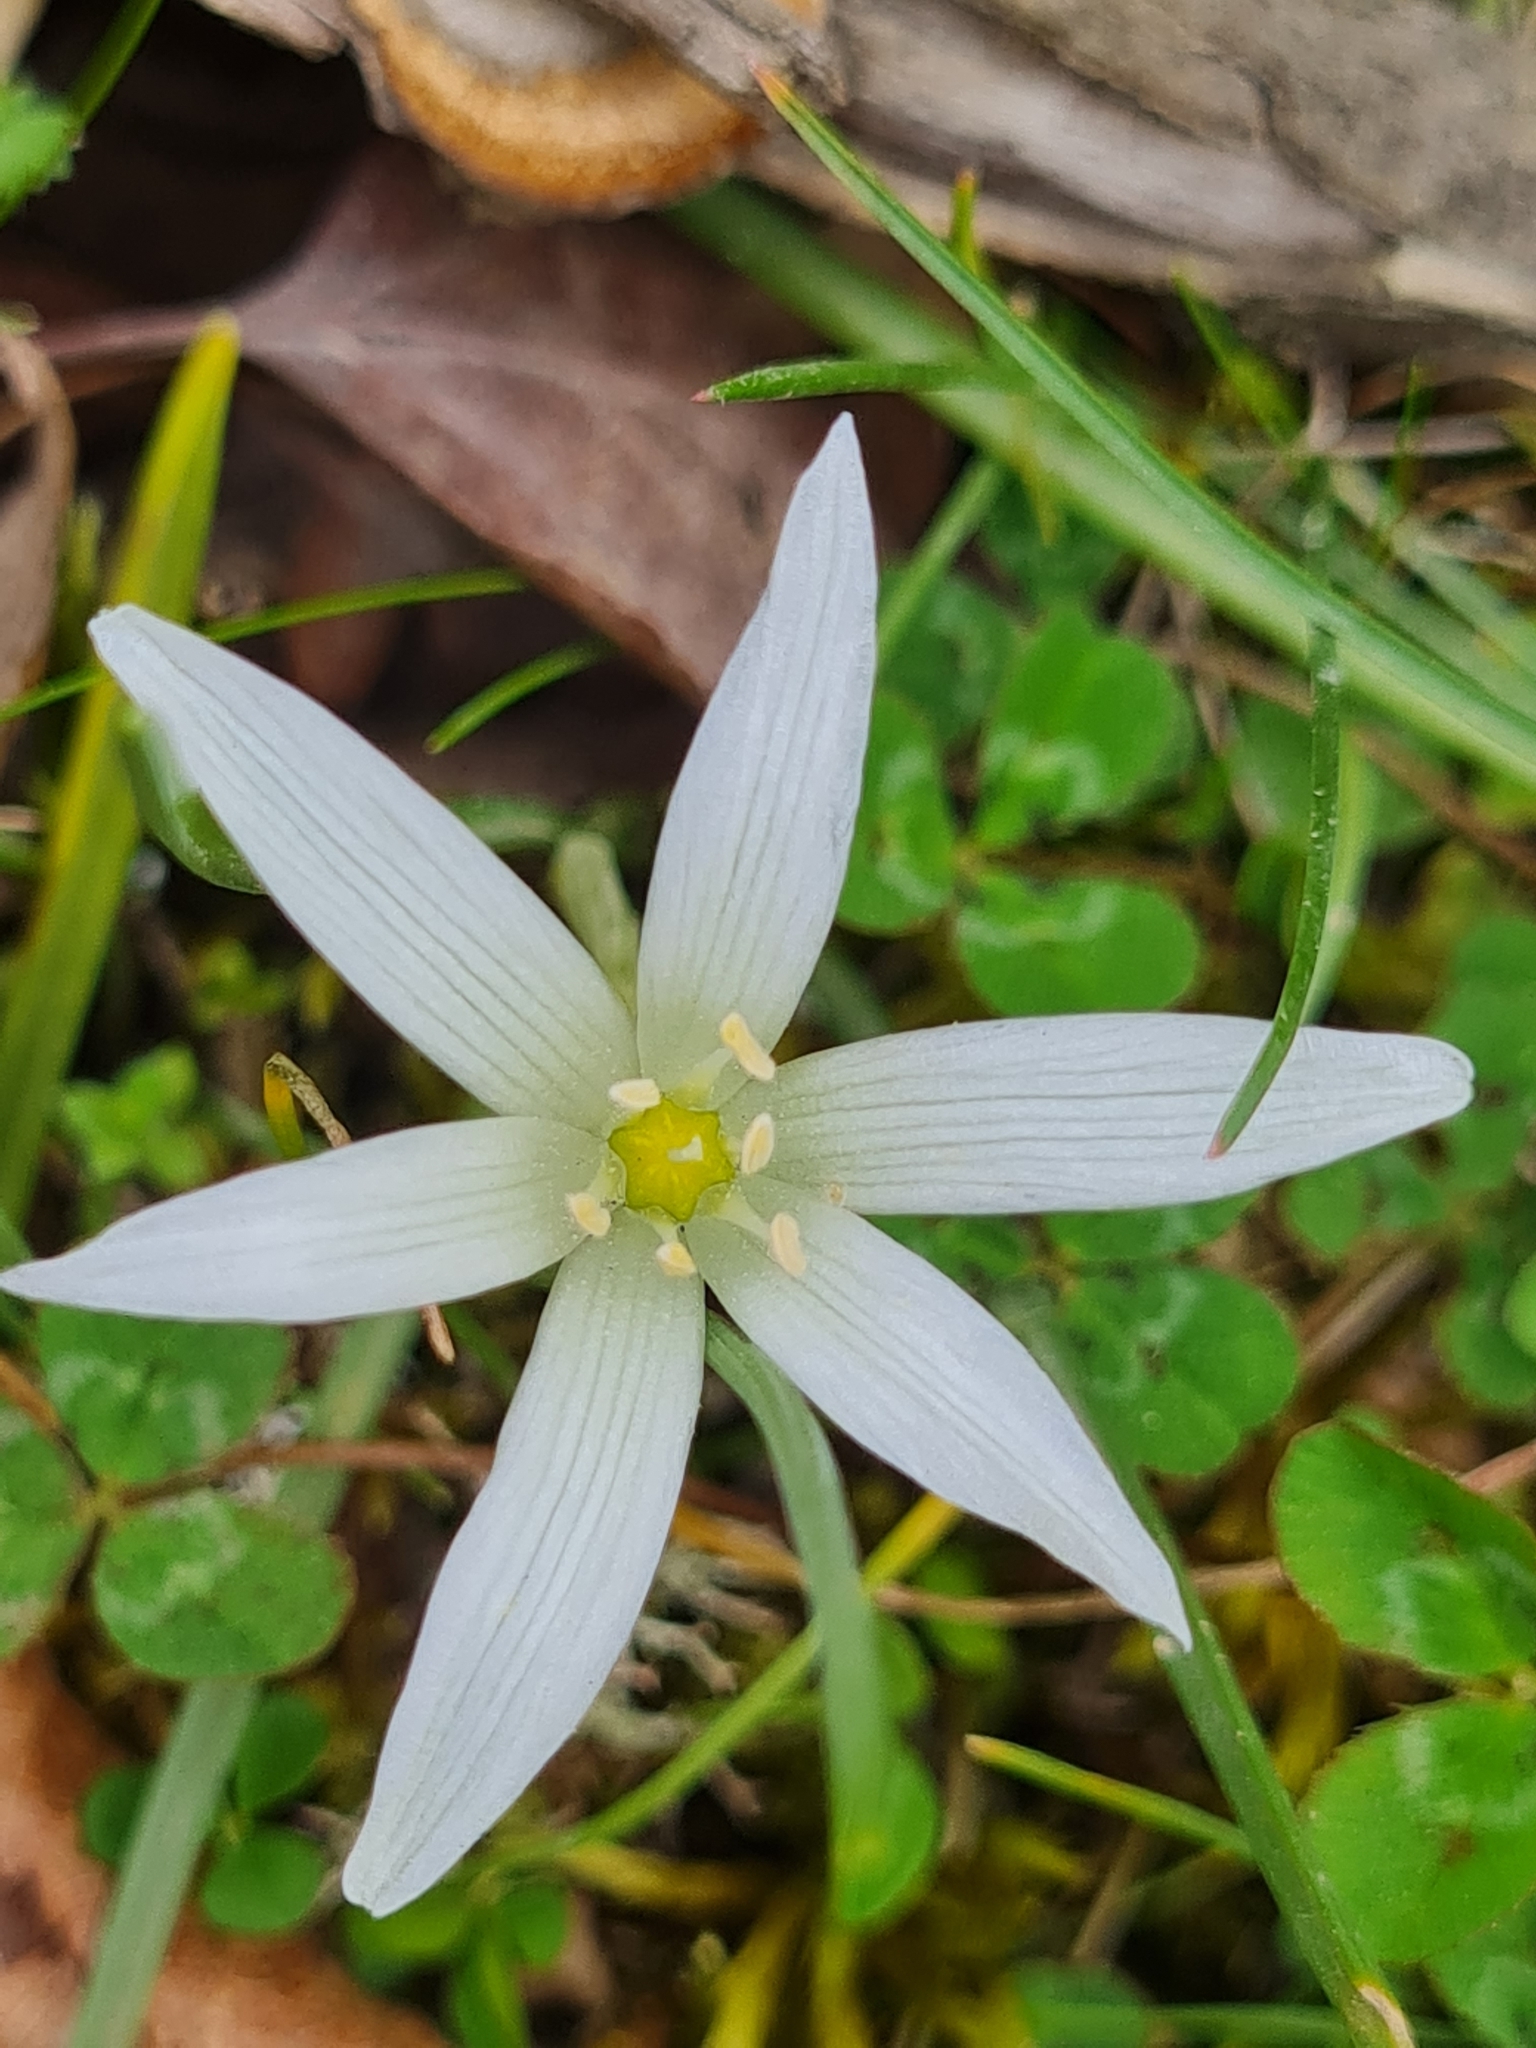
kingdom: Plantae
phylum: Tracheophyta
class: Liliopsida
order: Asparagales
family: Asparagaceae
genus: Ornithogalum
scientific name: Ornithogalum umbellatum
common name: Garden star-of-bethlehem
